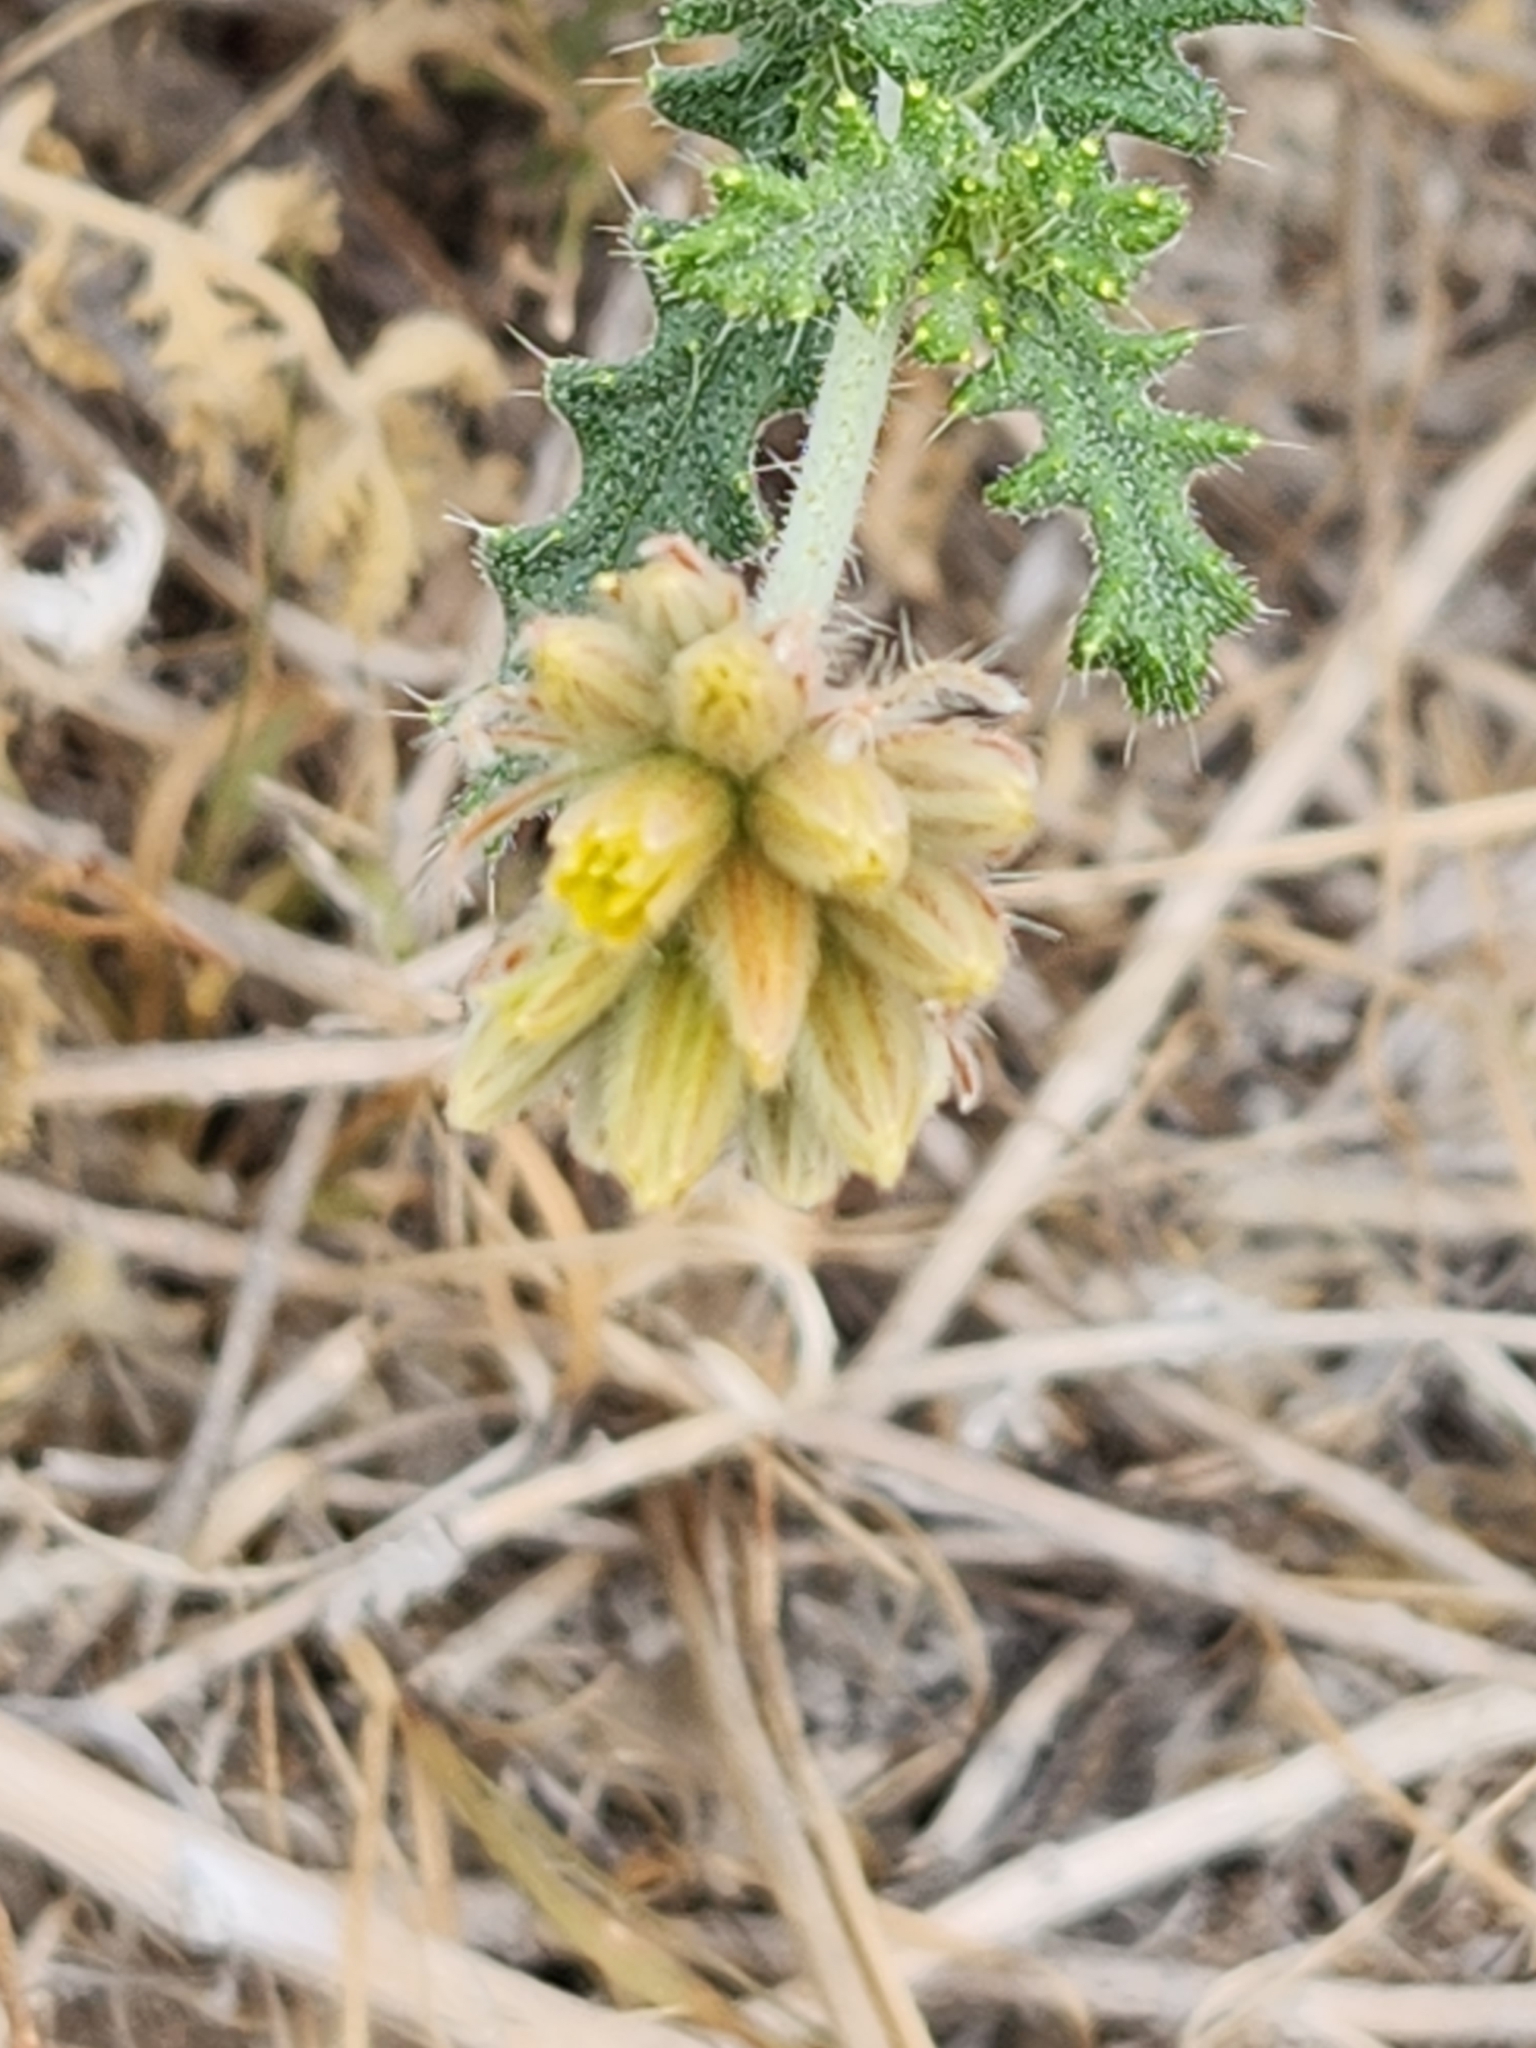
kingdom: Plantae
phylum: Tracheophyta
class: Magnoliopsida
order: Cornales
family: Loasaceae
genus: Cevallia
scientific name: Cevallia sinuata
